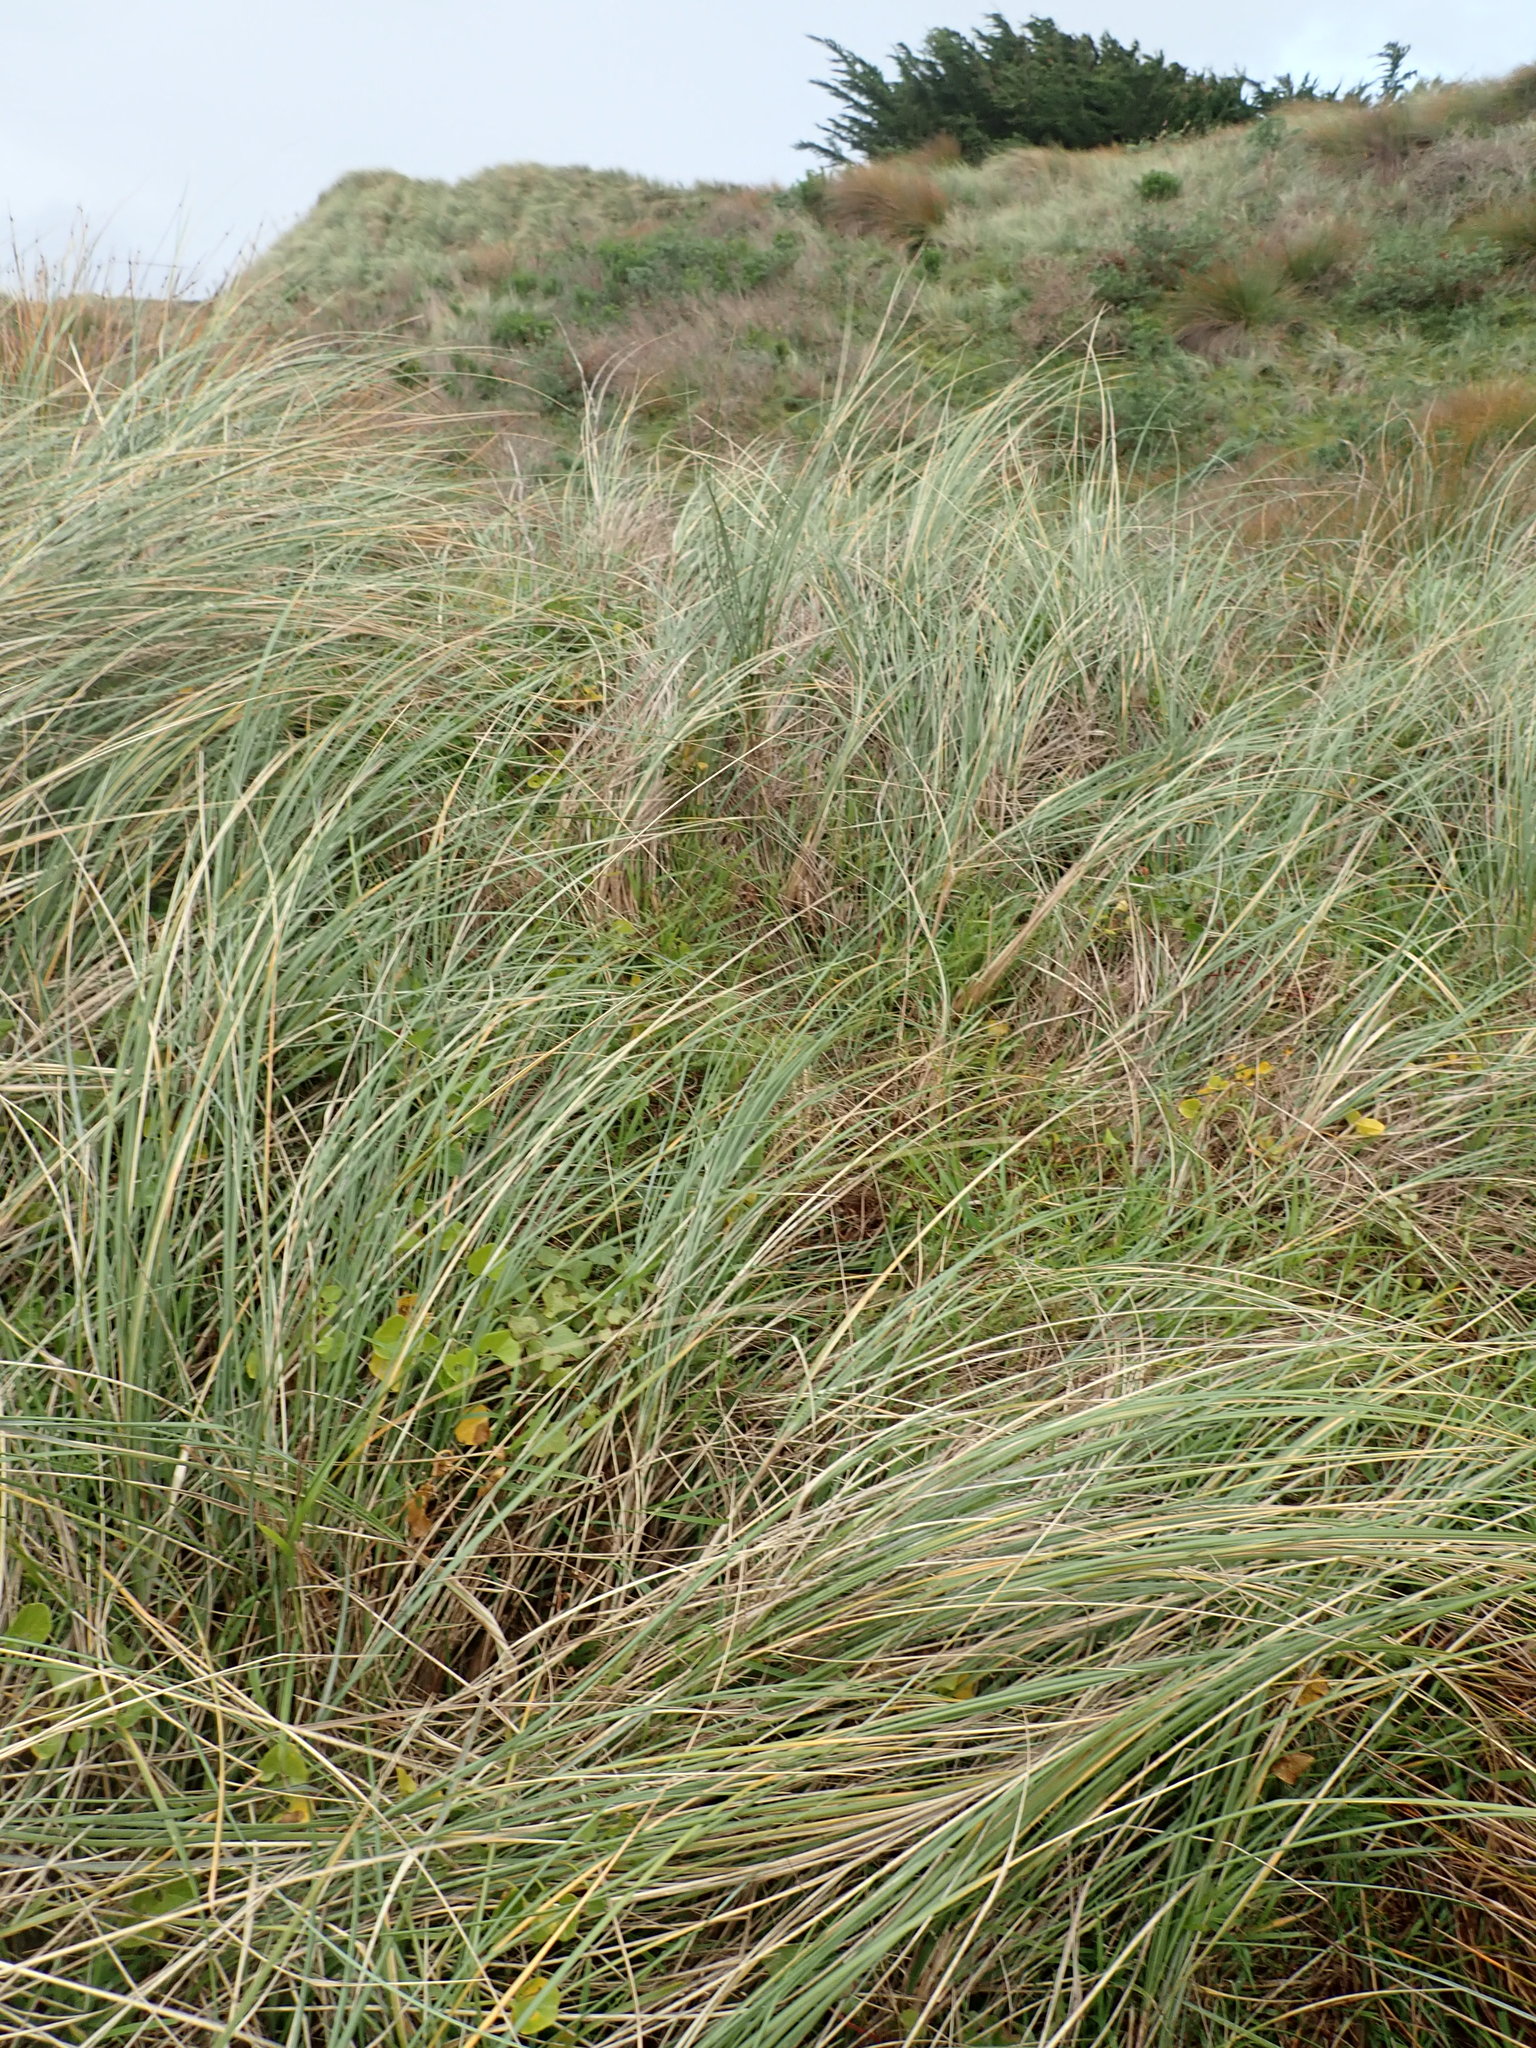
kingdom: Plantae
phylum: Tracheophyta
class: Magnoliopsida
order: Solanales
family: Convolvulaceae
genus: Calystegia
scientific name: Calystegia soldanella
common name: Sea bindweed
